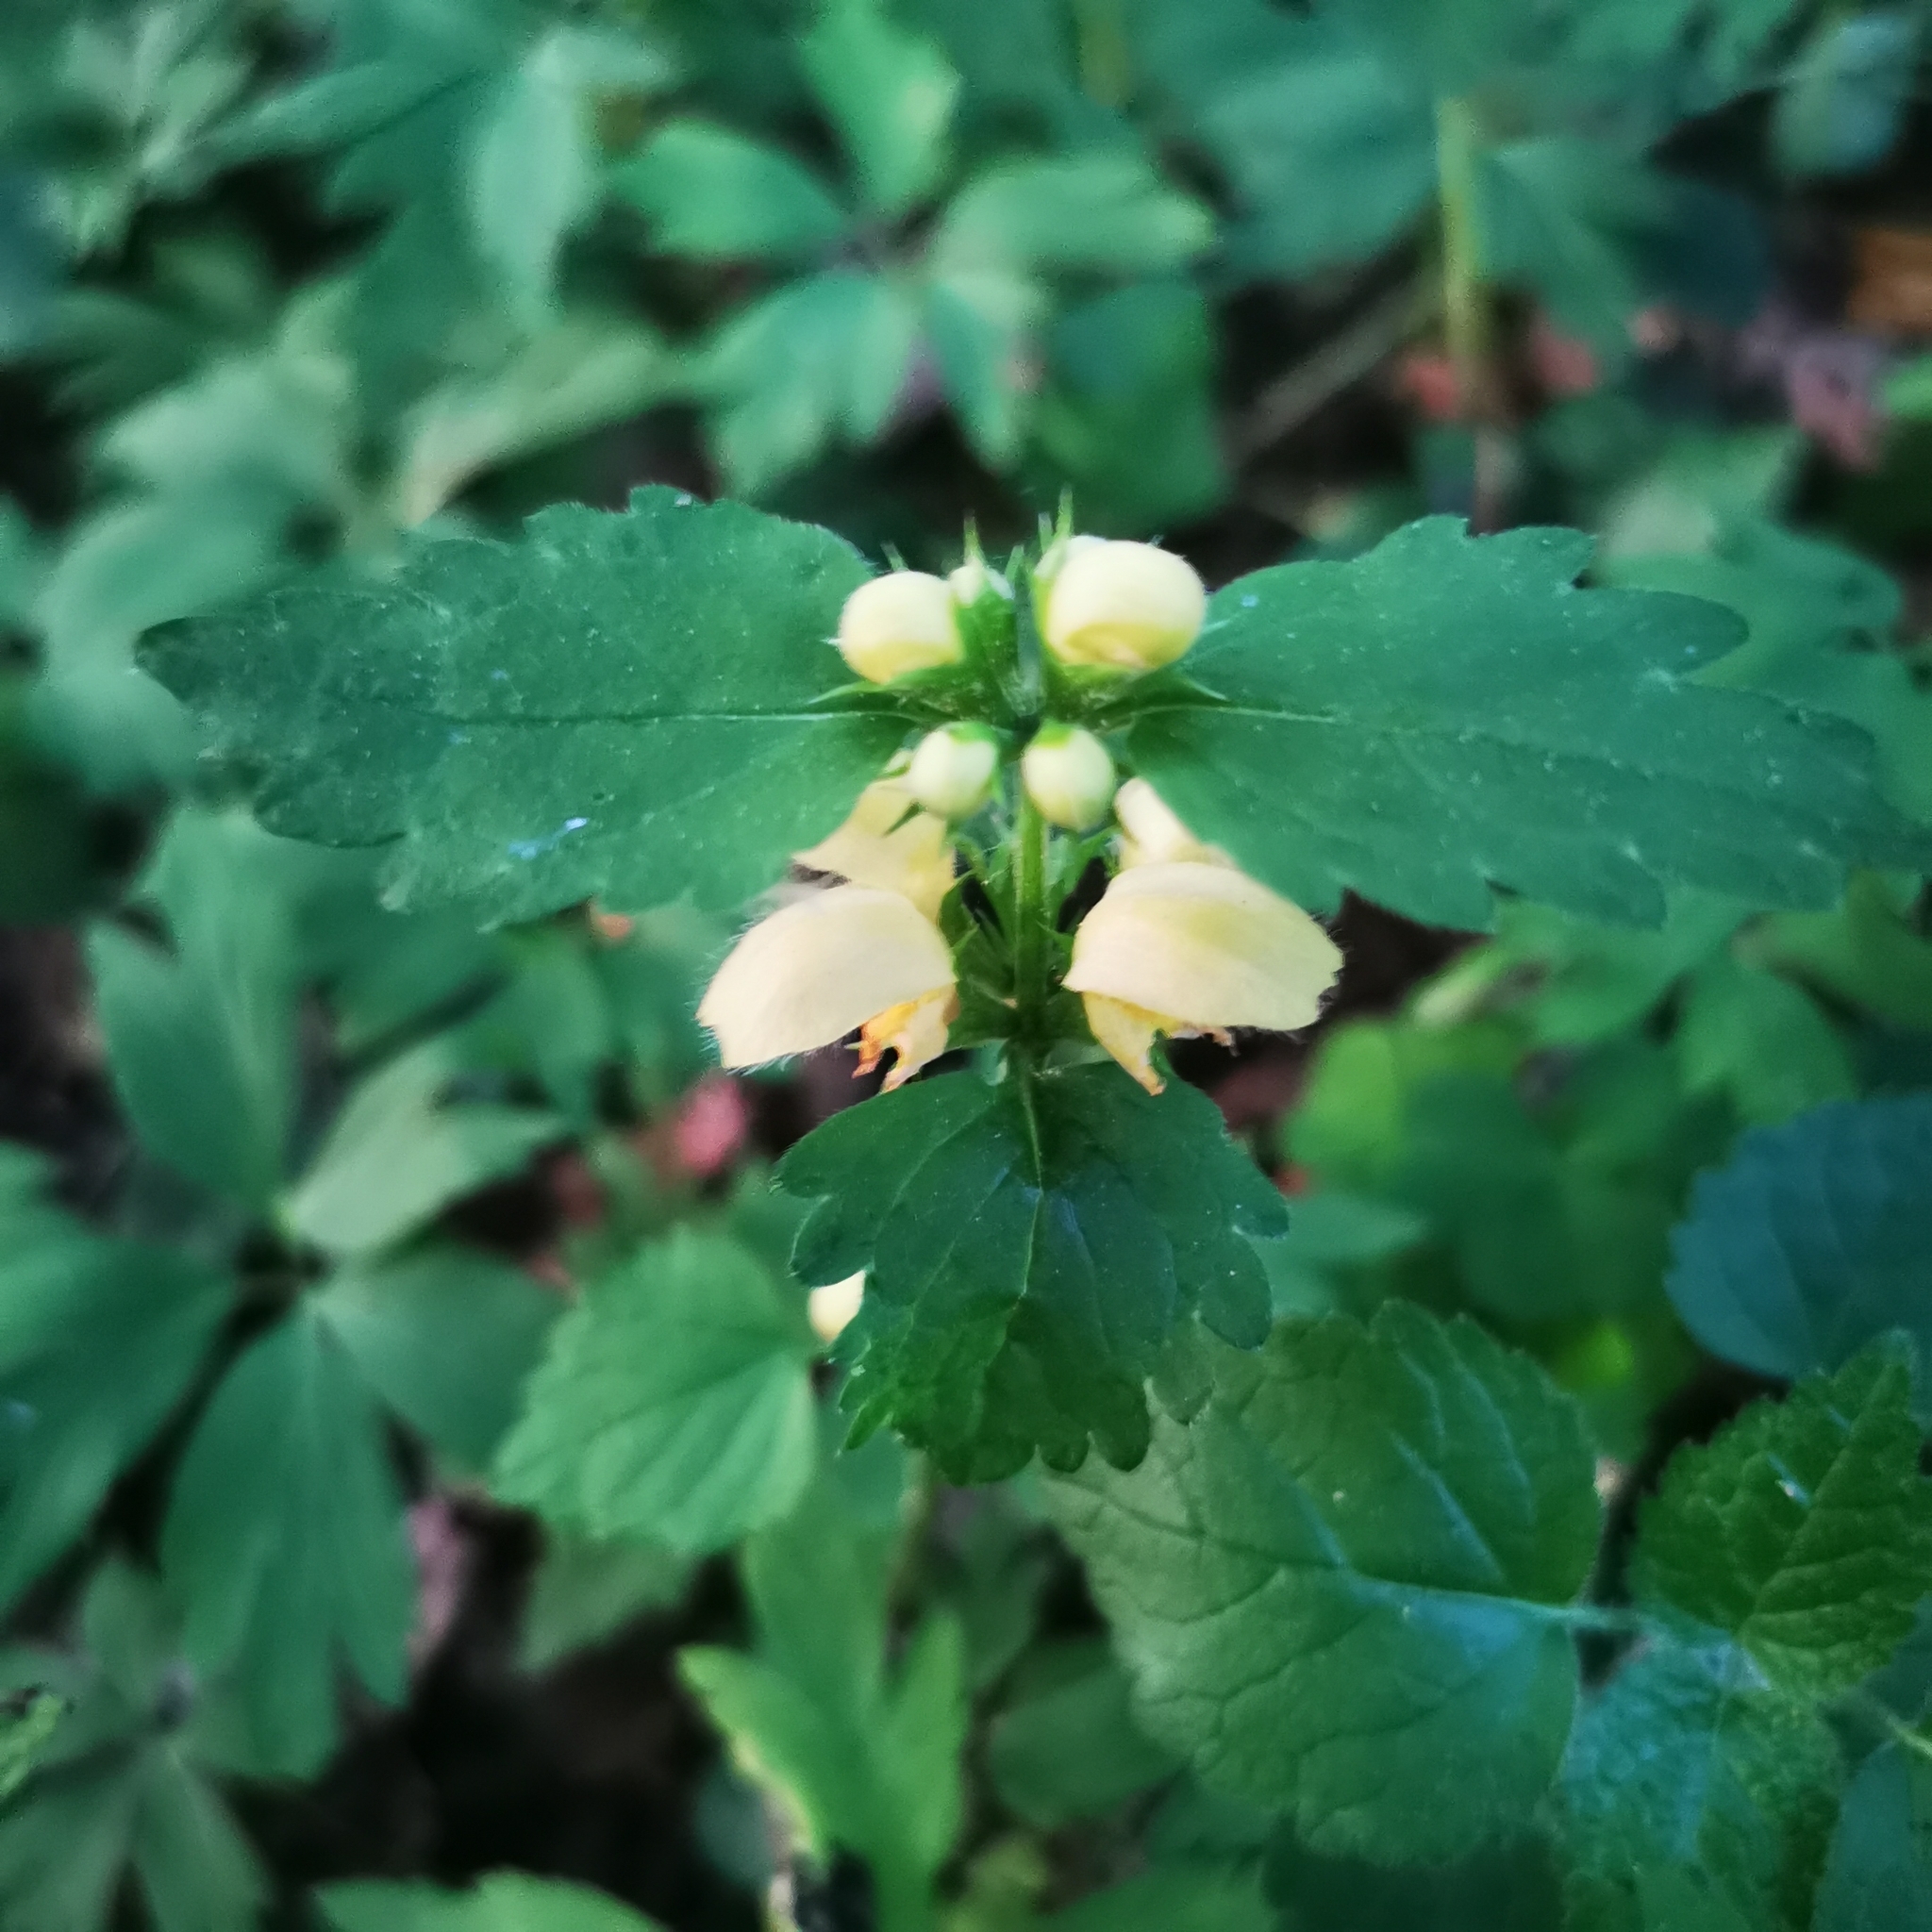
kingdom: Plantae
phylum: Tracheophyta
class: Magnoliopsida
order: Lamiales
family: Lamiaceae
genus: Lamium
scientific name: Lamium galeobdolon
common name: Yellow archangel
